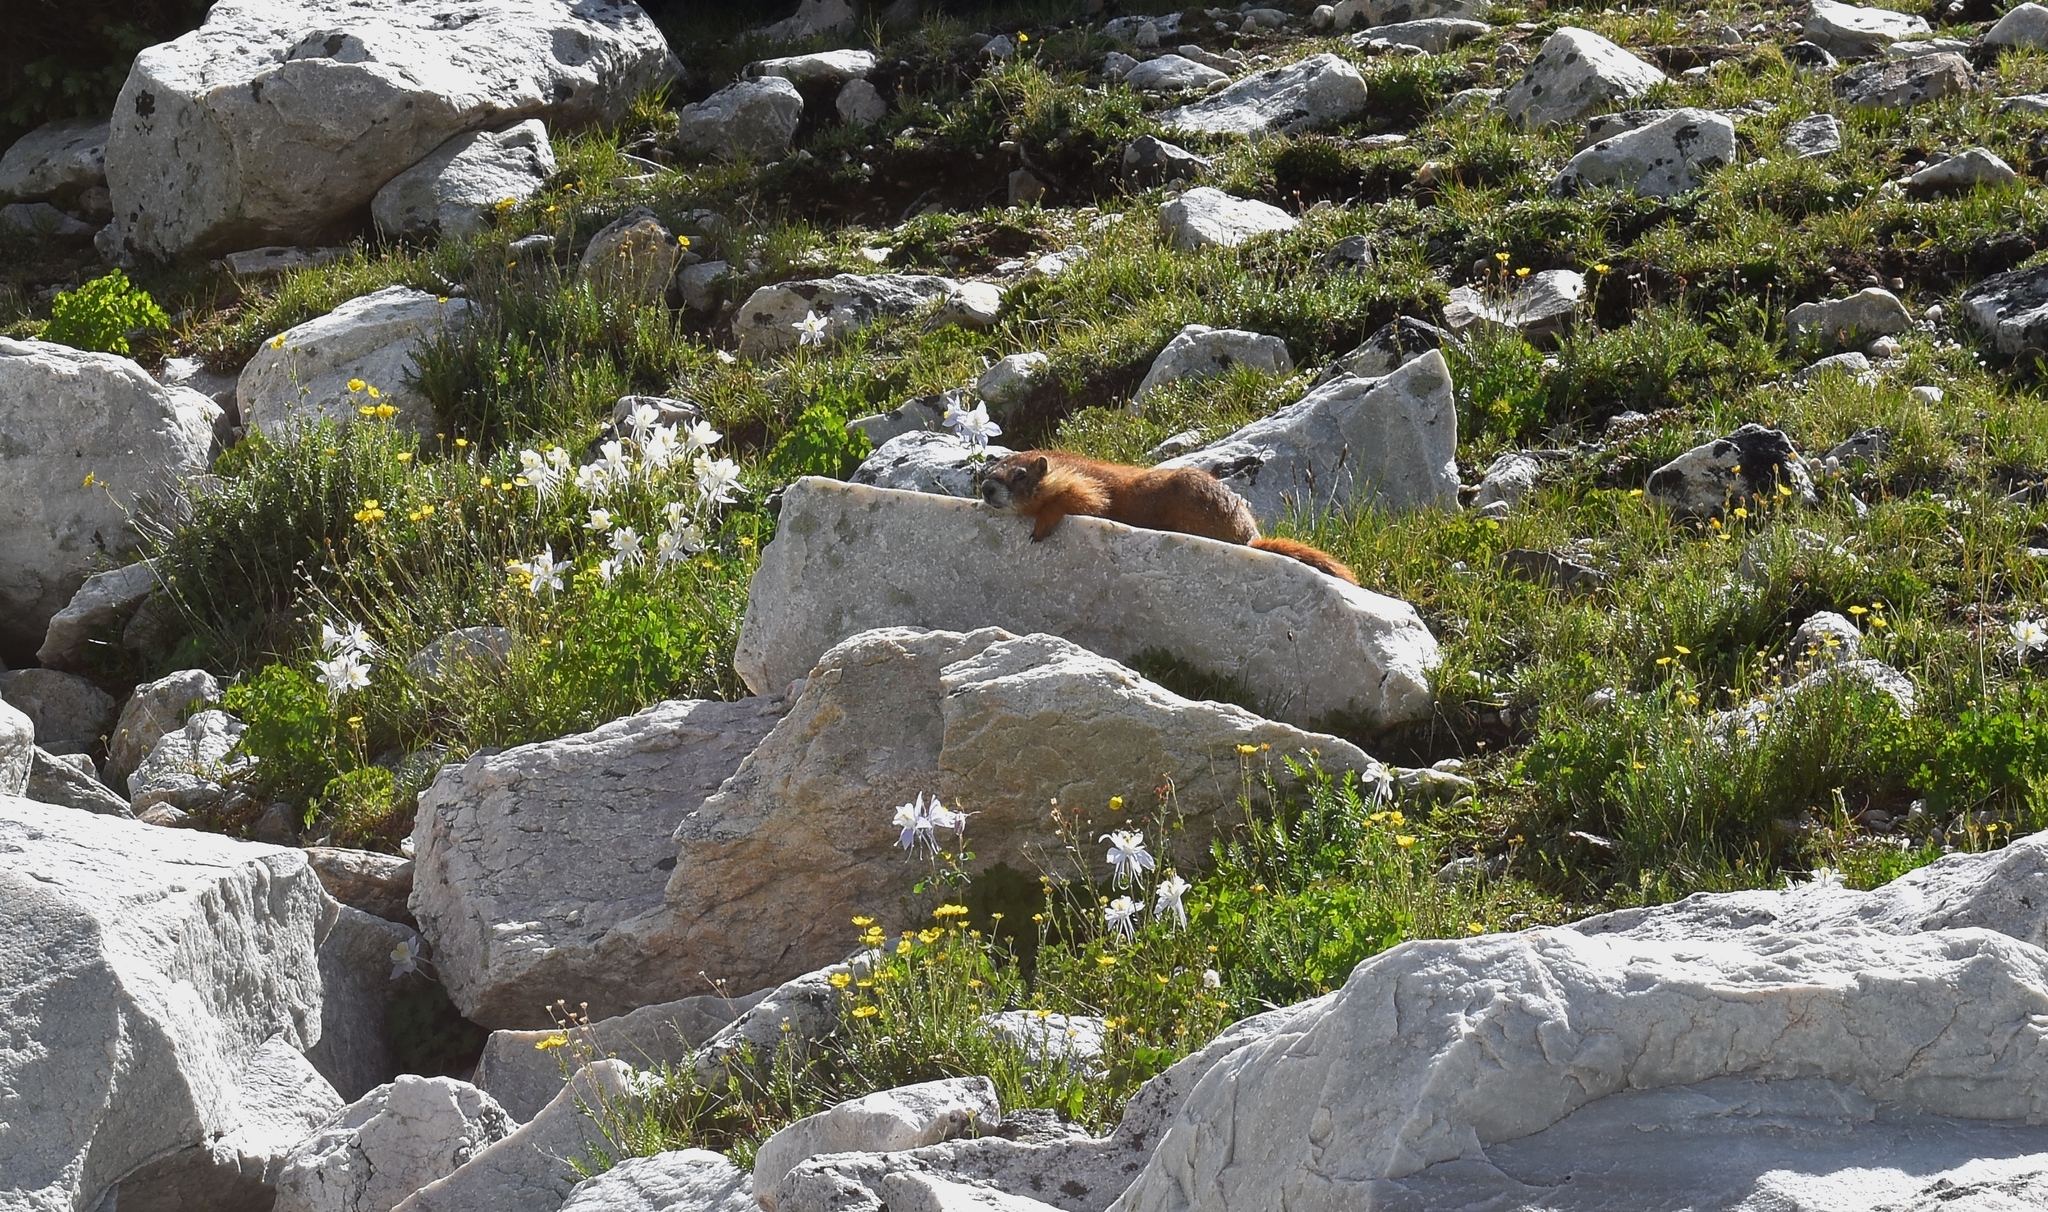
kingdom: Animalia
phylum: Chordata
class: Mammalia
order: Rodentia
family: Sciuridae
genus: Marmota
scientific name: Marmota flaviventris
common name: Yellow-bellied marmot
